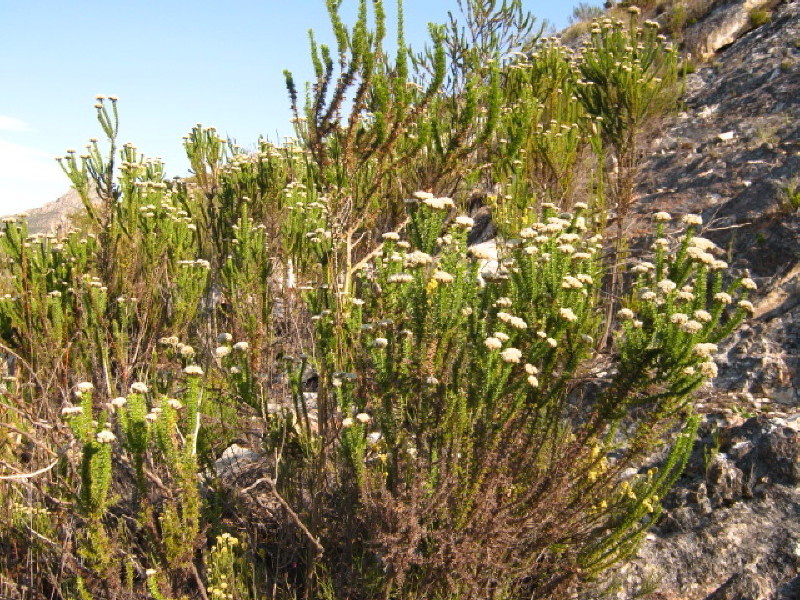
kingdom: Plantae
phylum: Tracheophyta
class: Magnoliopsida
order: Asterales
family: Asteraceae
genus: Metalasia
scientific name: Metalasia acuta
